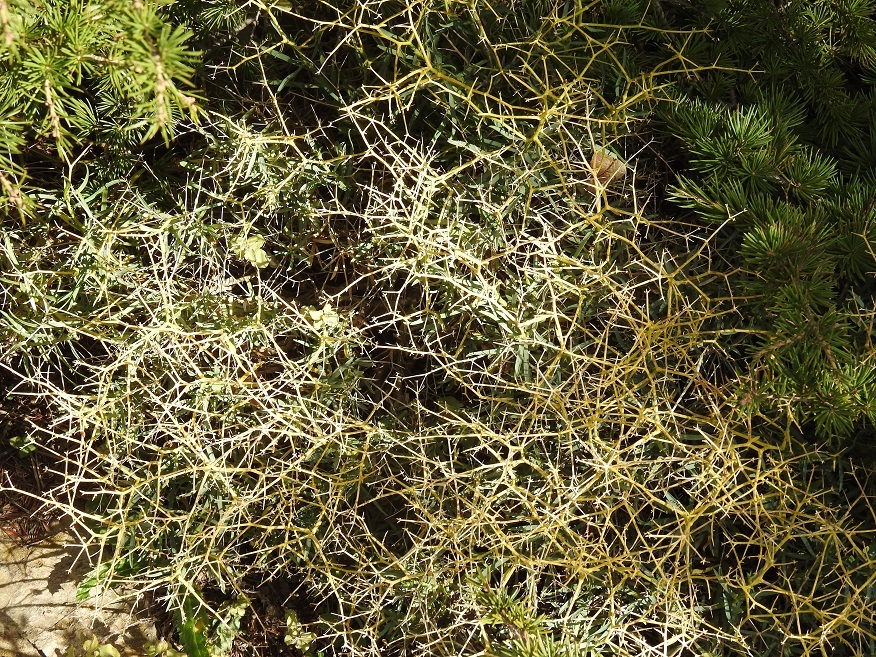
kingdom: Plantae
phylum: Tracheophyta
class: Magnoliopsida
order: Apiales
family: Apiaceae
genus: Bupleurum
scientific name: Bupleurum fruticescens
